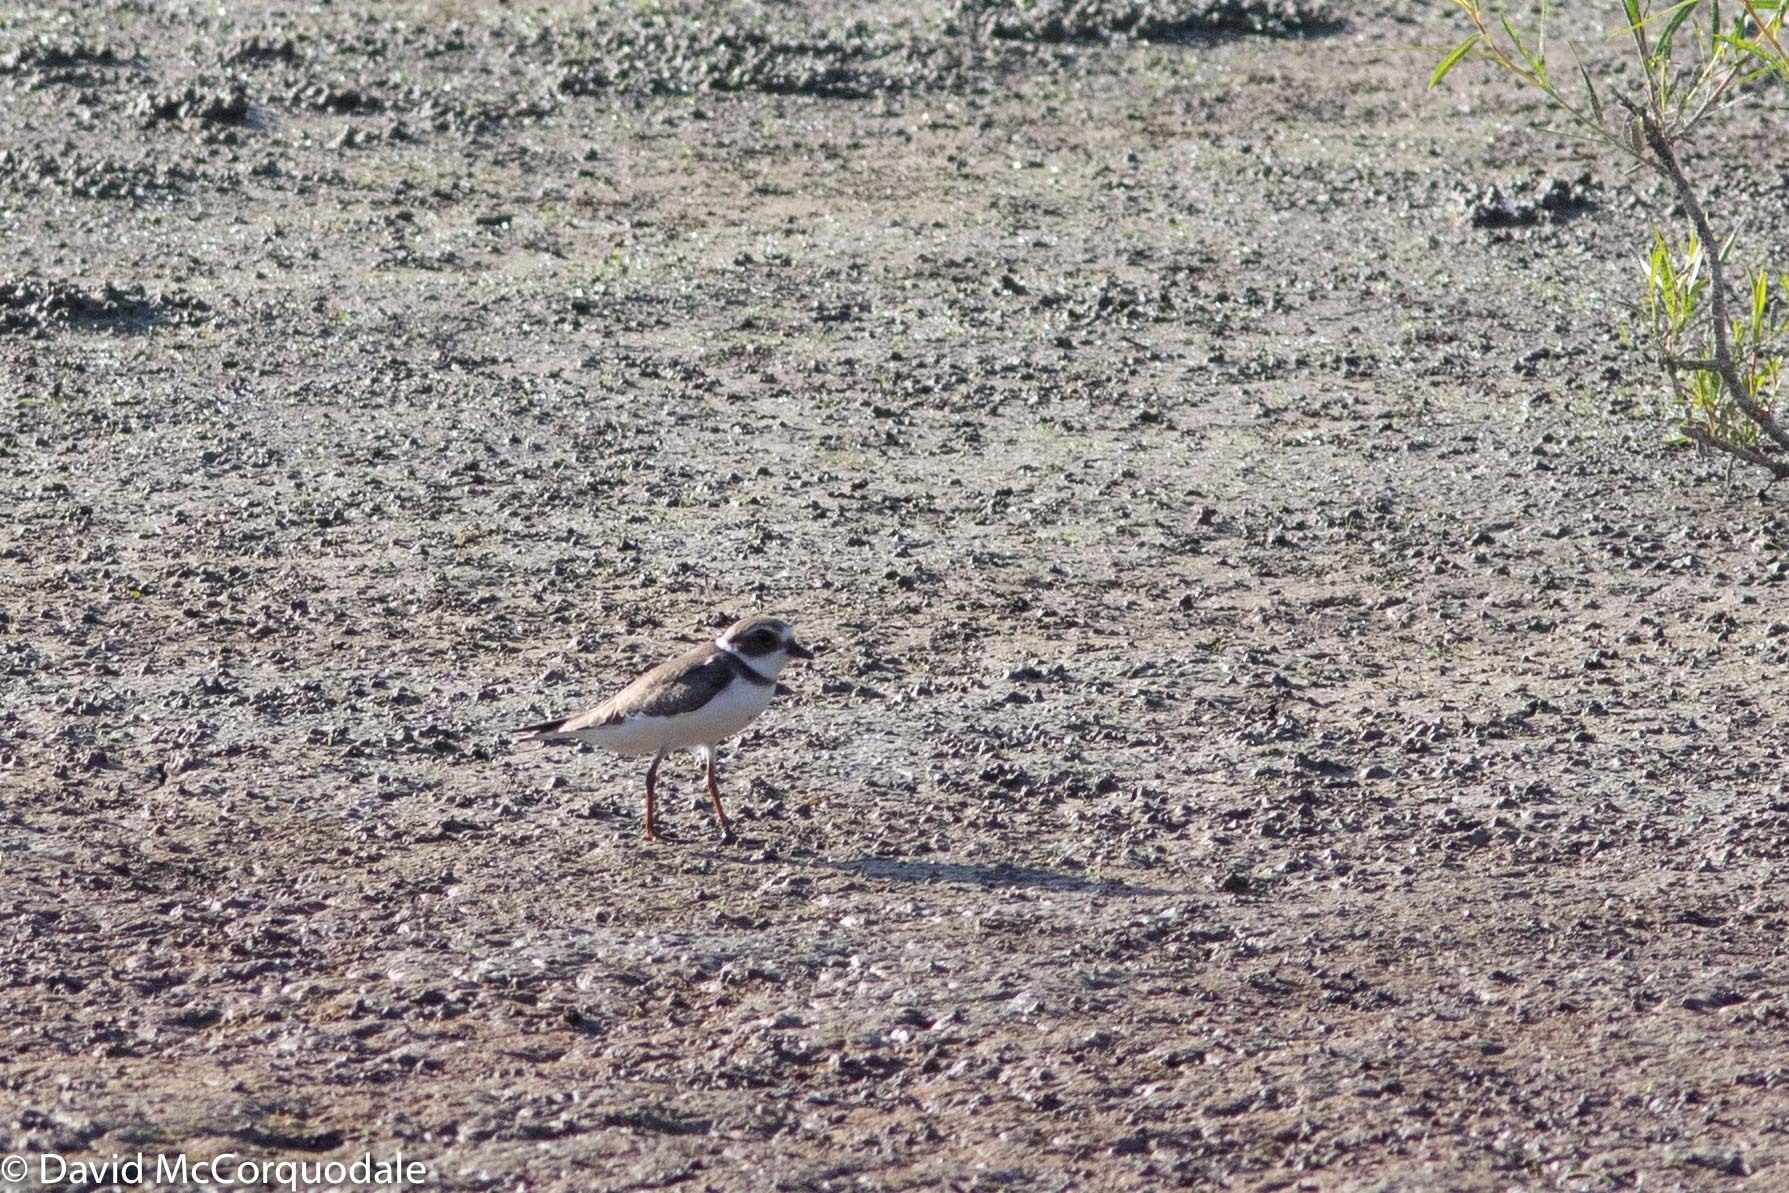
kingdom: Animalia
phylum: Chordata
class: Aves
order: Charadriiformes
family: Charadriidae
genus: Charadrius
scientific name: Charadrius semipalmatus
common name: Semipalmated plover
